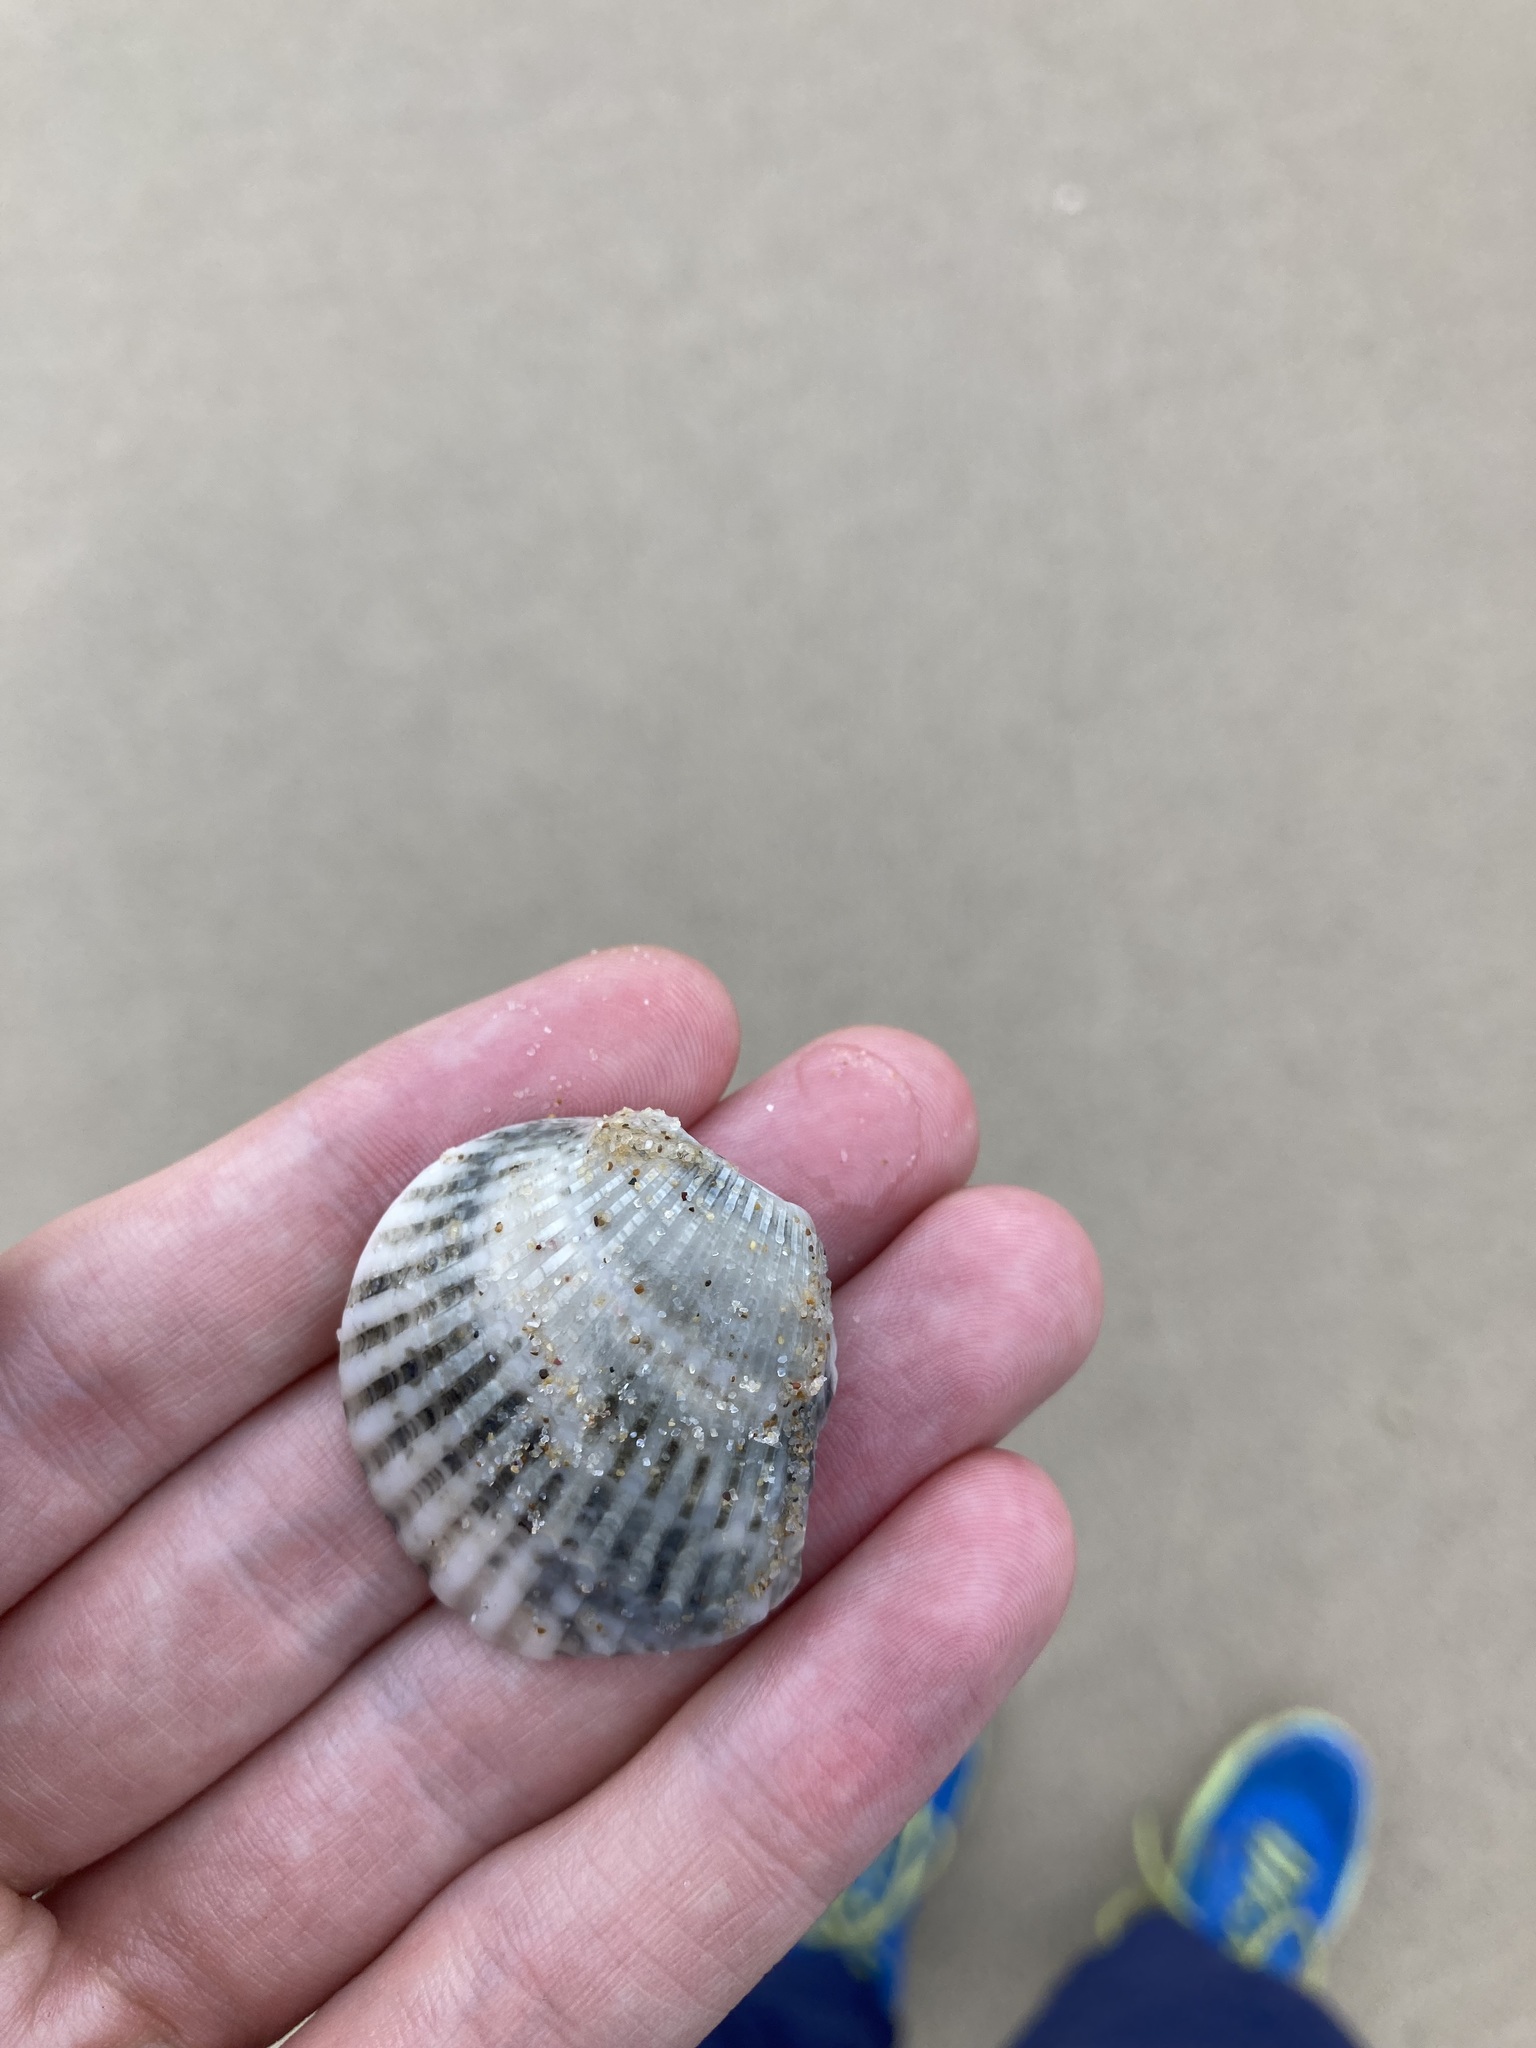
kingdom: Animalia
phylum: Mollusca
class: Bivalvia
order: Arcida
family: Arcidae
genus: Anadara
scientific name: Anadara trapezia
